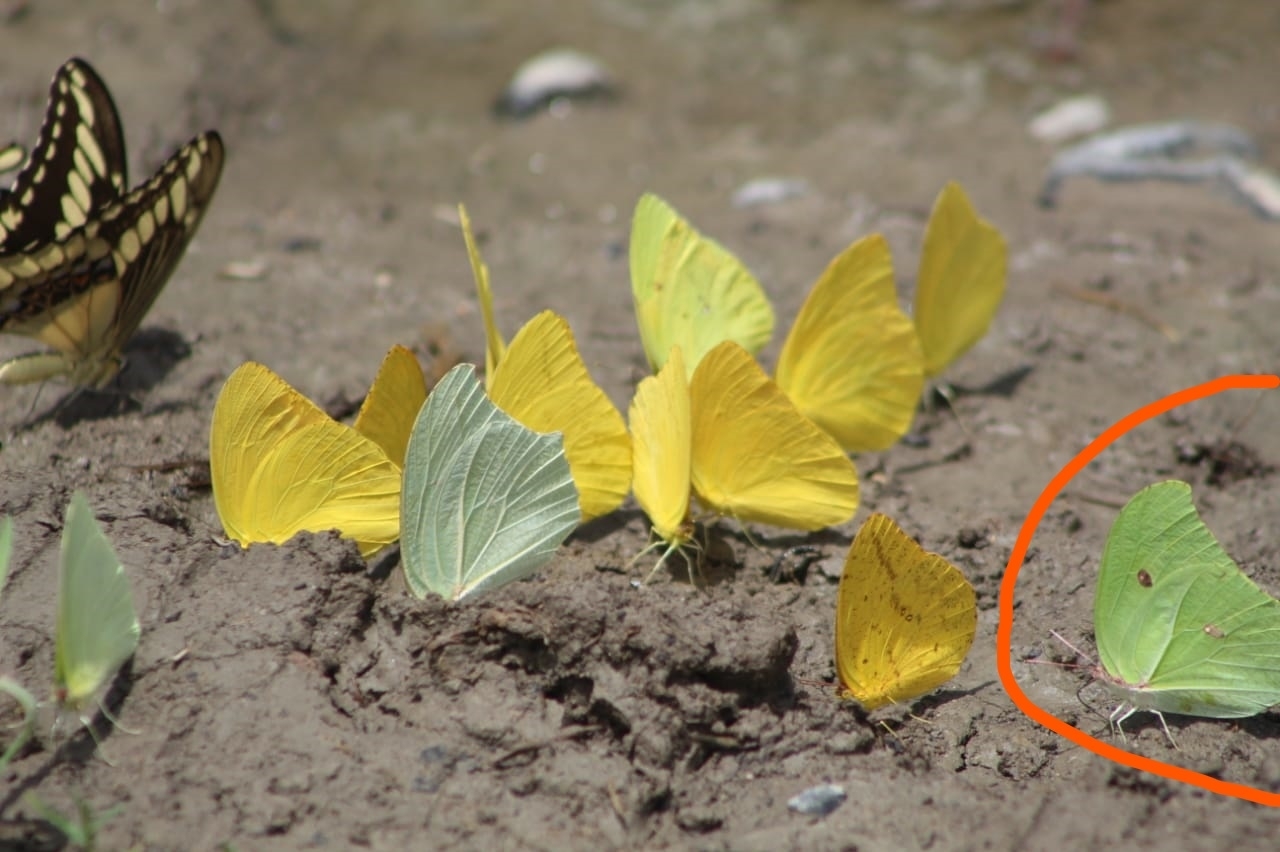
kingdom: Animalia
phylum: Arthropoda
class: Insecta
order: Lepidoptera
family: Pieridae
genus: Anteos
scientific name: Anteos maerula
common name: Angled sulphur
